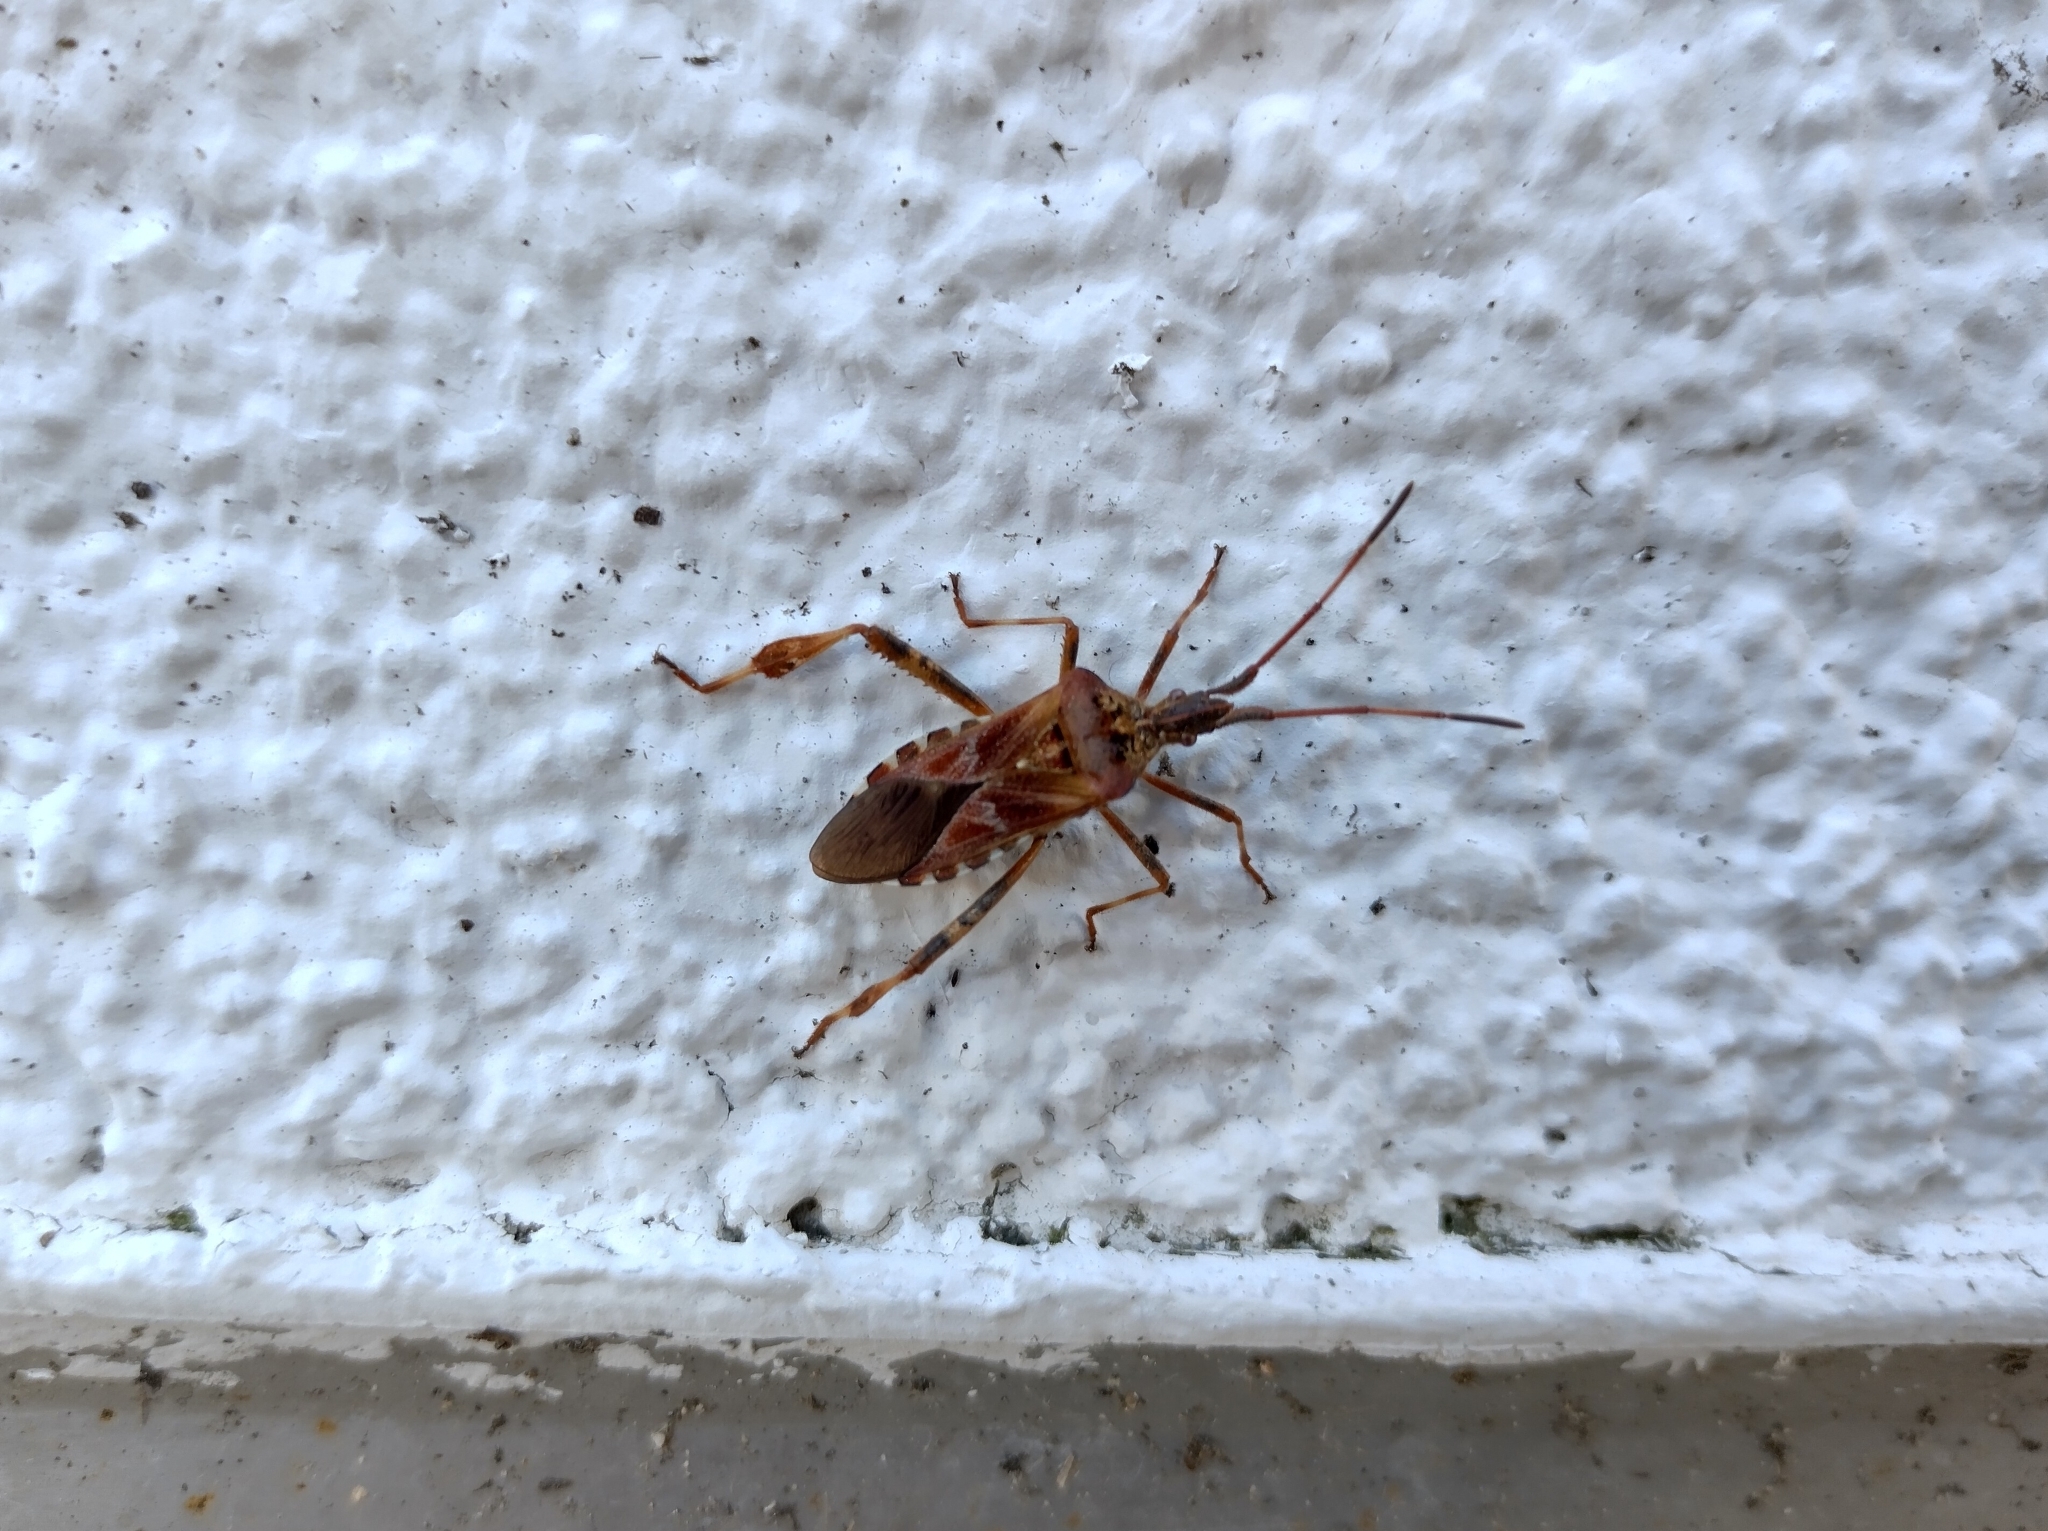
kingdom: Animalia
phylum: Arthropoda
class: Insecta
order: Hemiptera
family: Coreidae
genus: Leptoglossus
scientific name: Leptoglossus occidentalis
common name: Western conifer-seed bug
